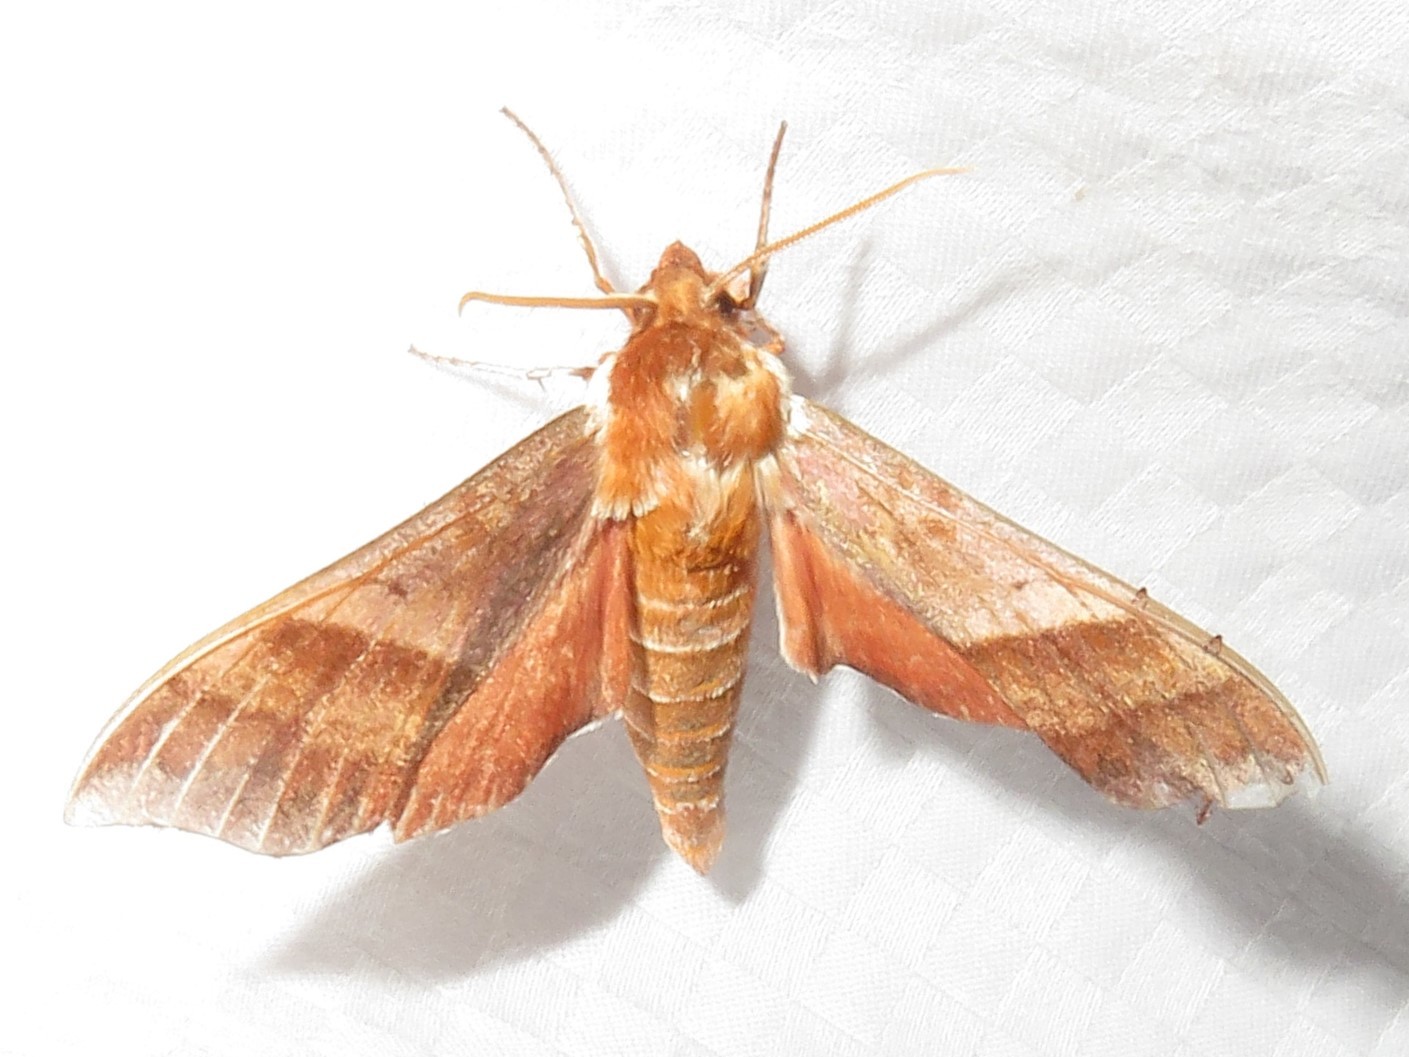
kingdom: Animalia
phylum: Arthropoda
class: Insecta
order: Lepidoptera
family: Sphingidae
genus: Darapsa
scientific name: Darapsa choerilus
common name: Azalea sphinx
